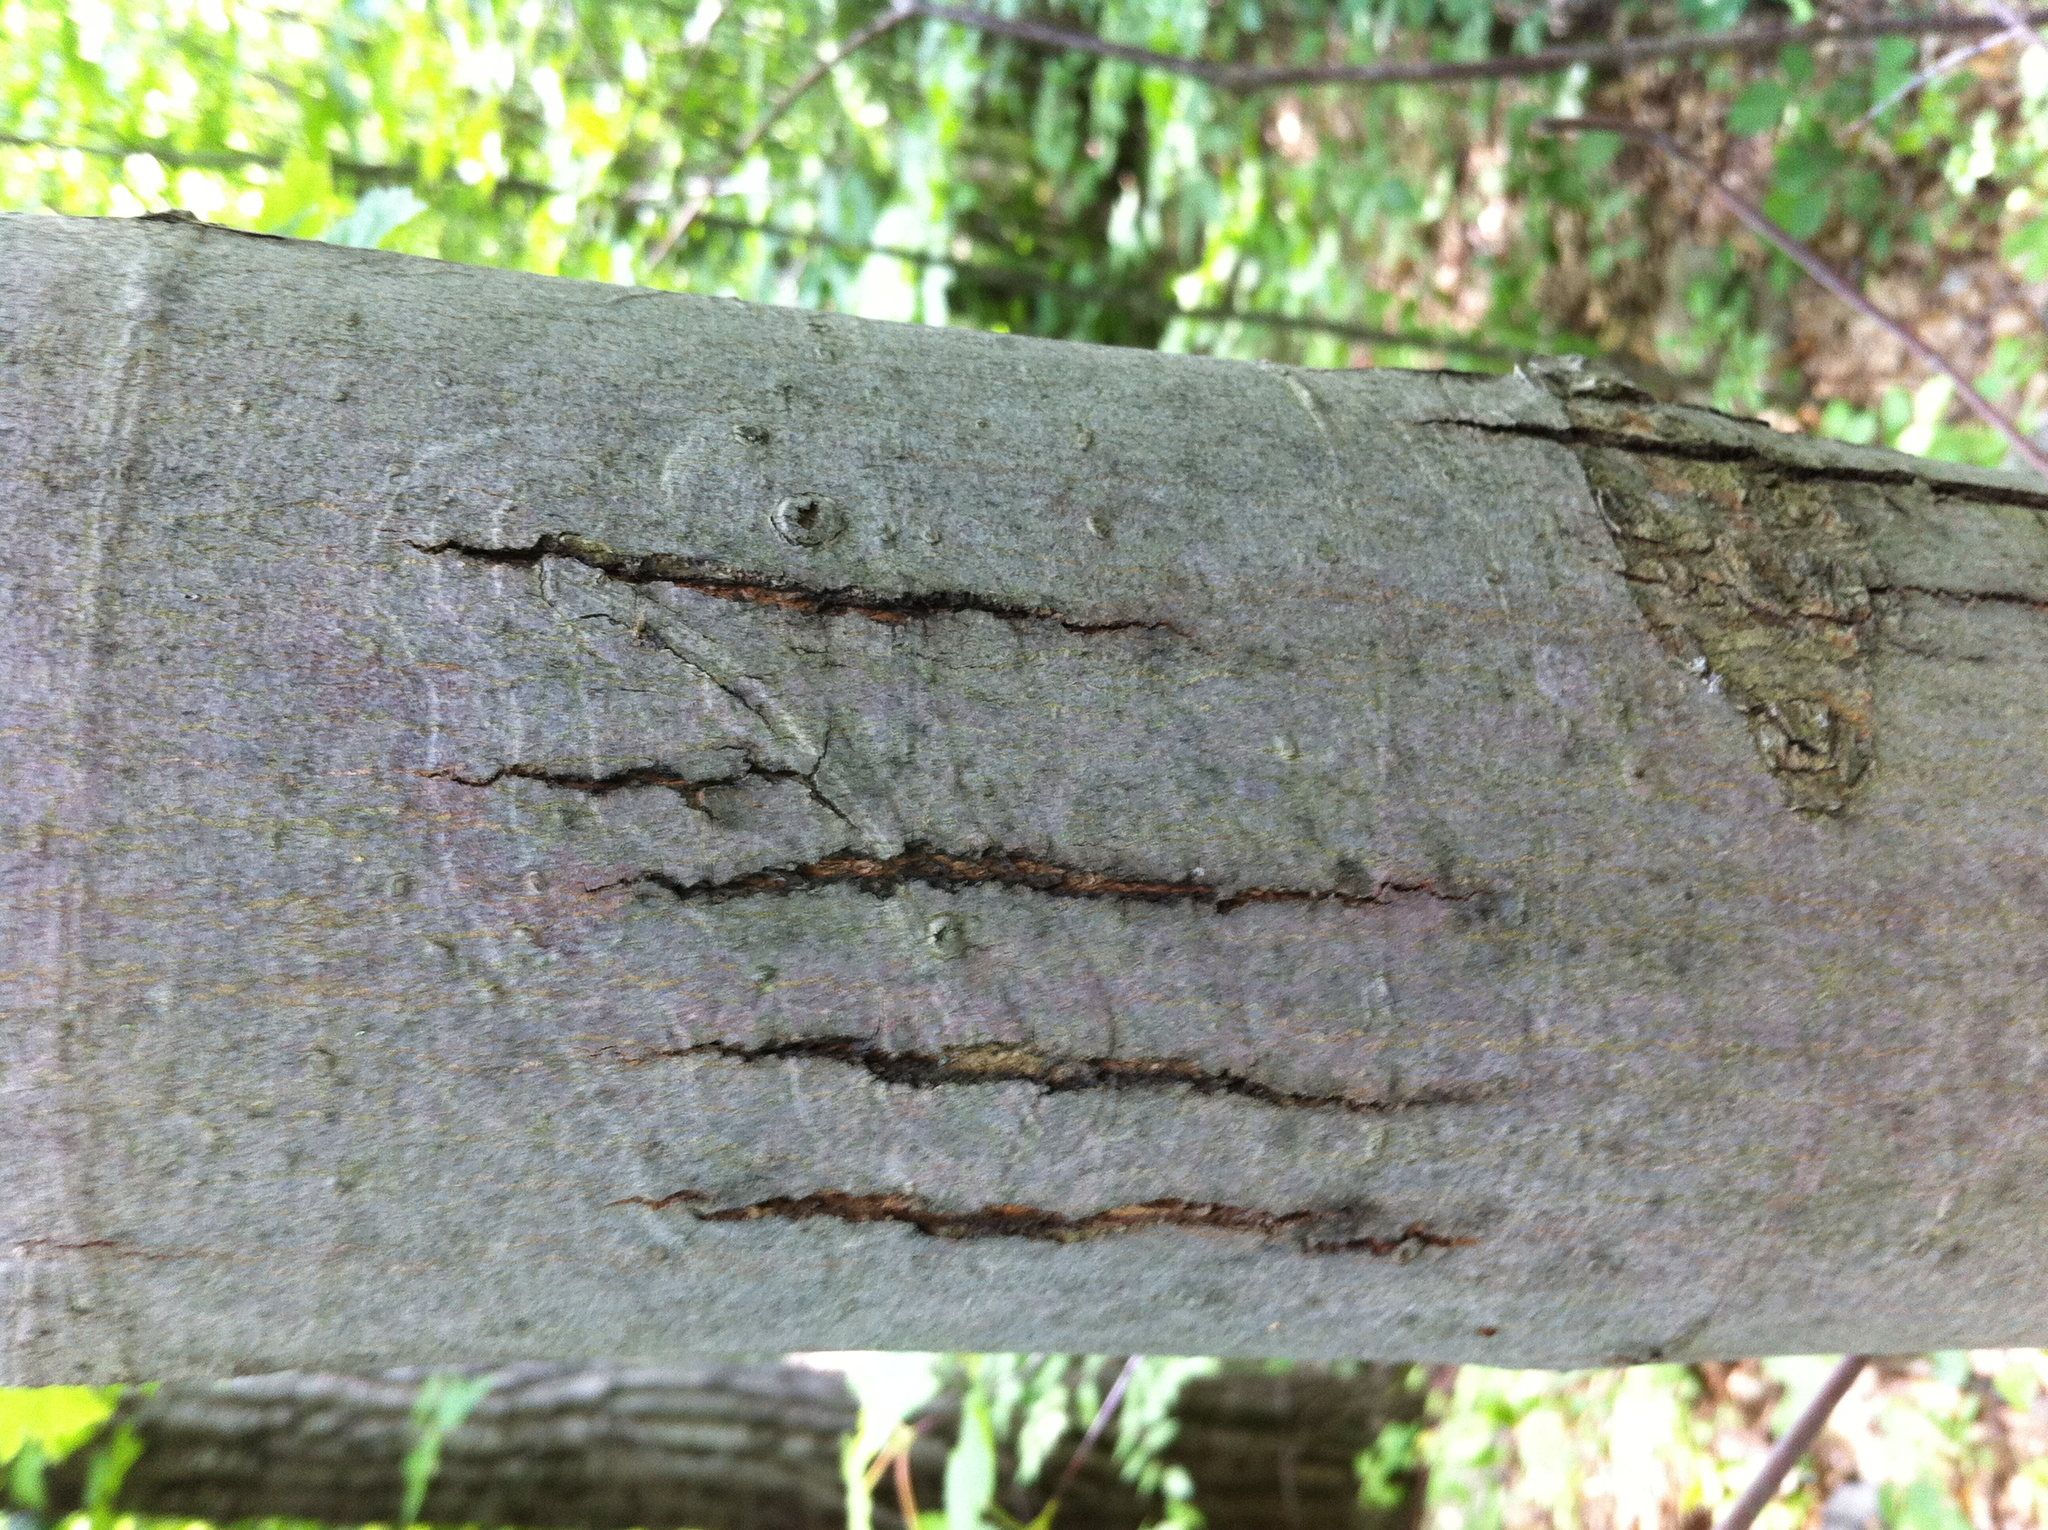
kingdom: Plantae
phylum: Tracheophyta
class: Magnoliopsida
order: Fagales
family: Fagaceae
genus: Fagus
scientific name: Fagus grandifolia
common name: American beech
